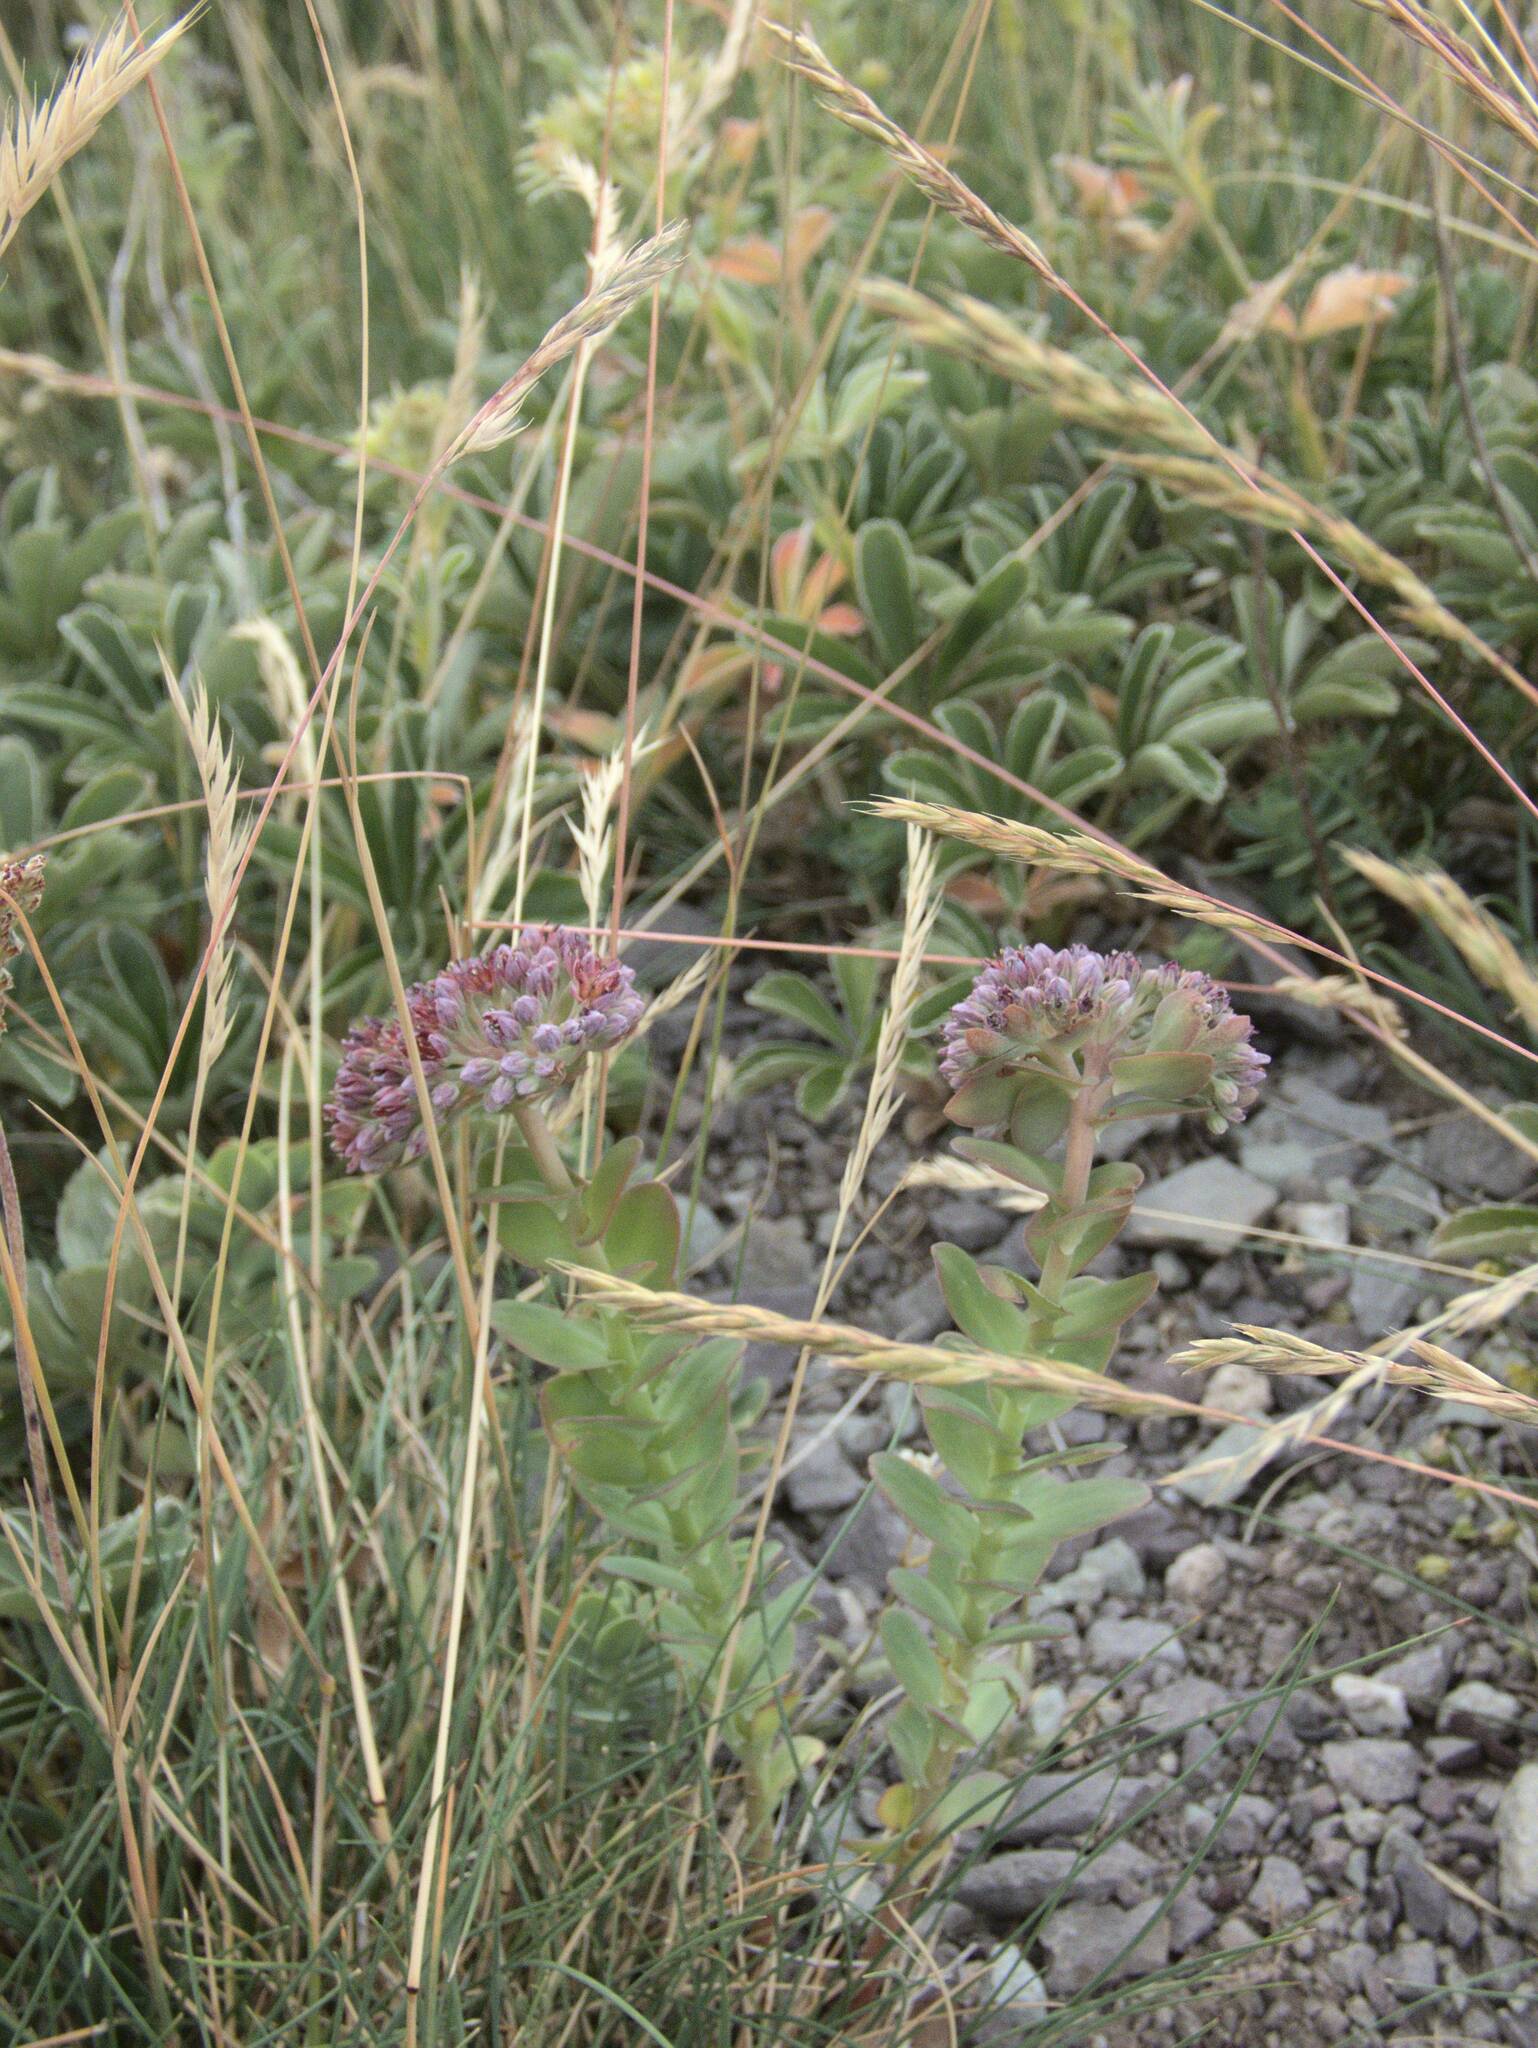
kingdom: Plantae
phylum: Tracheophyta
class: Magnoliopsida
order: Saxifragales
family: Crassulaceae
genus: Hylotelephium
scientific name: Hylotelephium anacampseros
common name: Love-restorer
